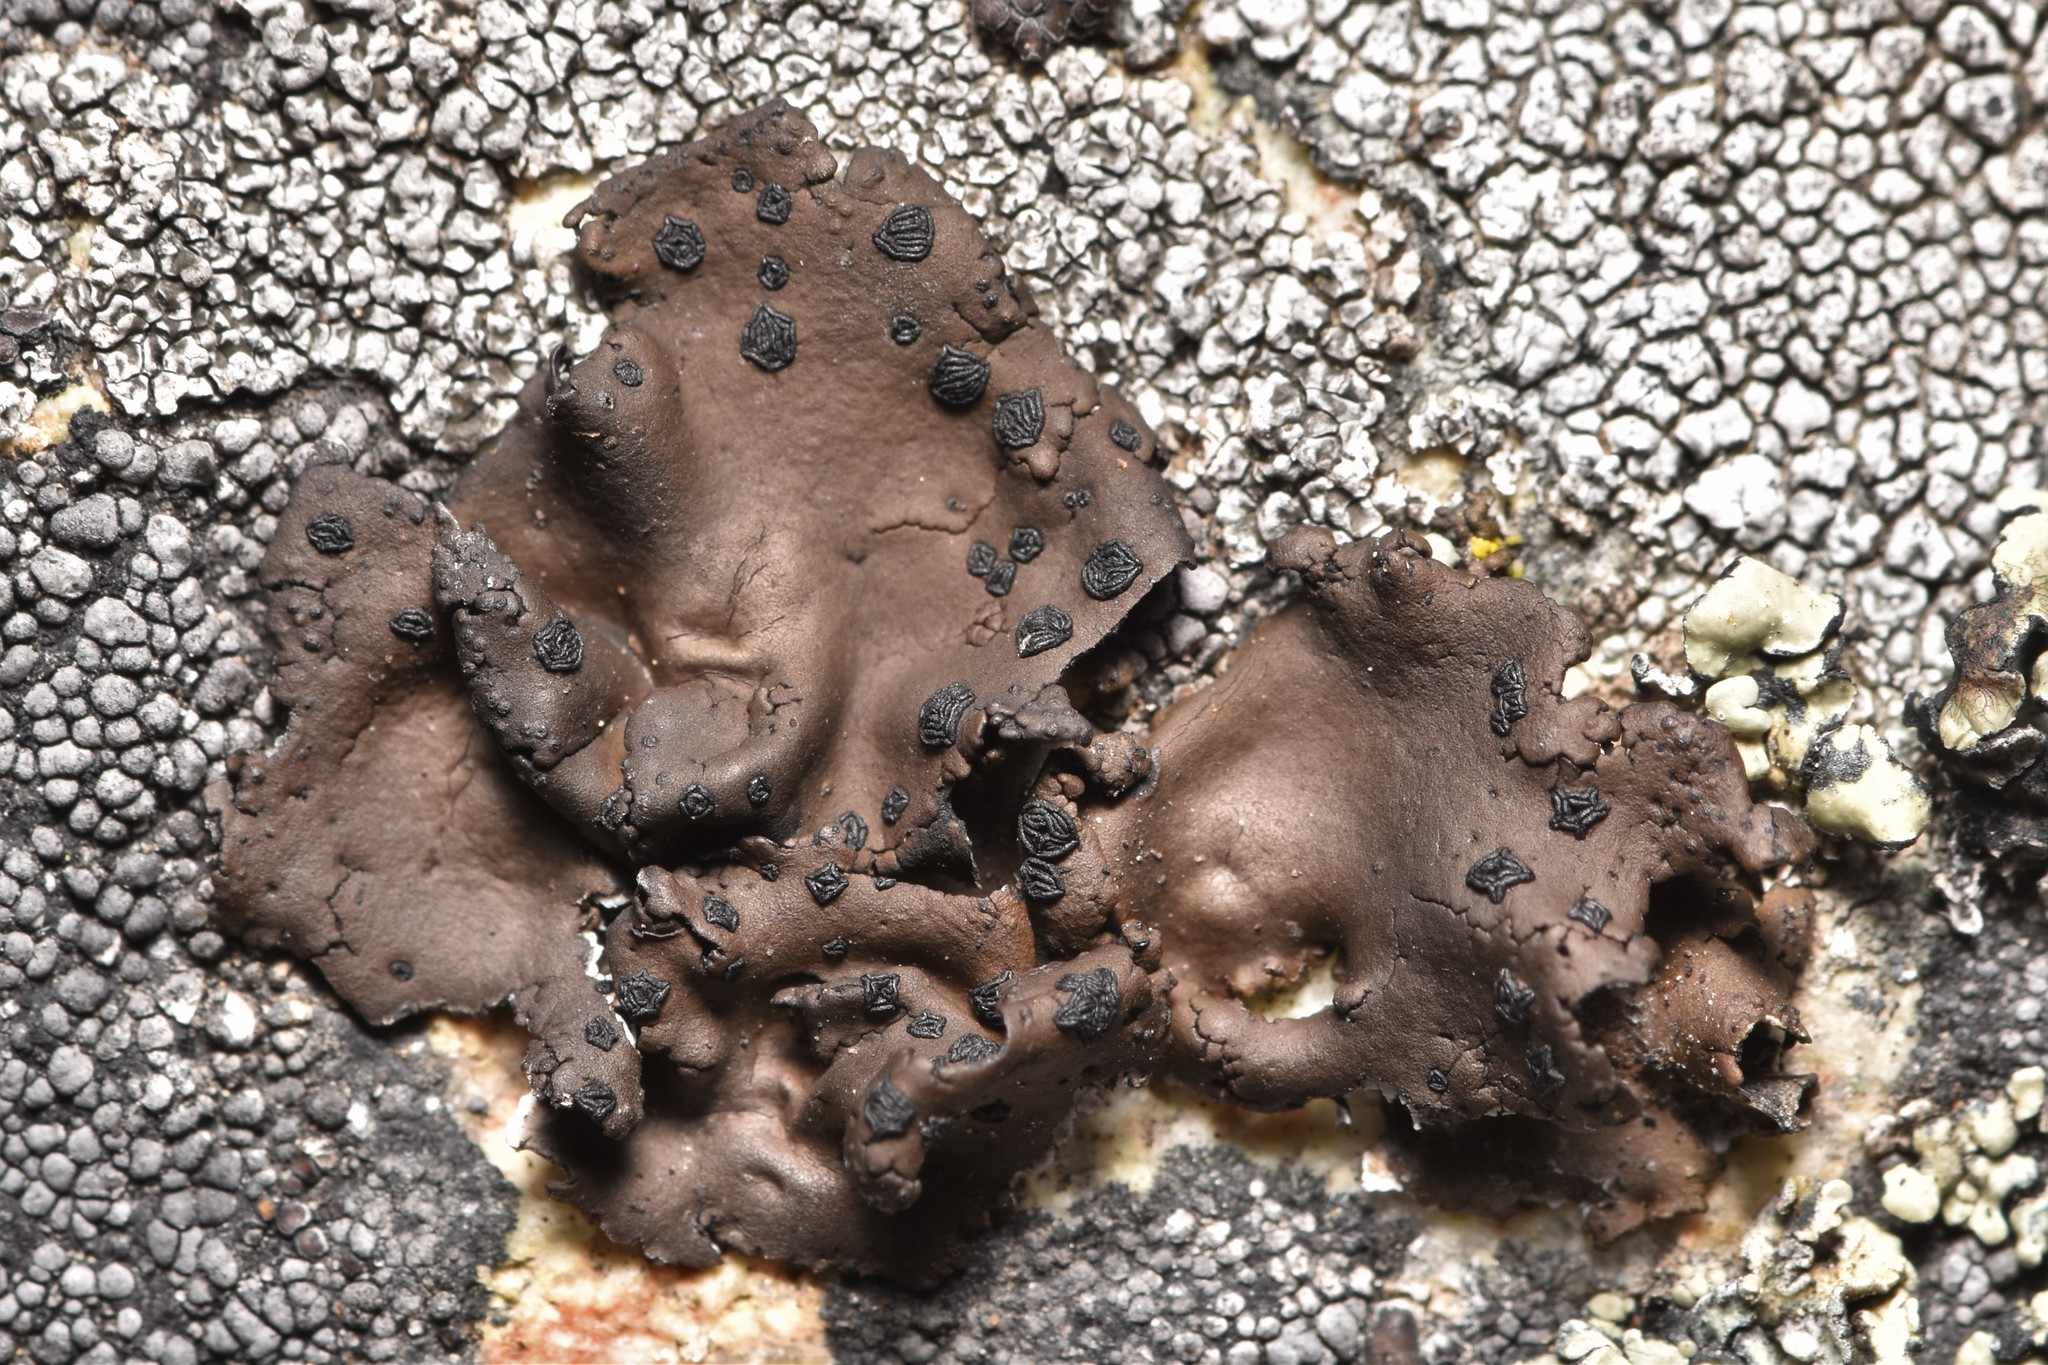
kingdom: Fungi
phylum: Ascomycota
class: Lecanoromycetes
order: Umbilicariales
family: Umbilicariaceae
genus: Umbilicaria
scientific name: Umbilicaria phaea
